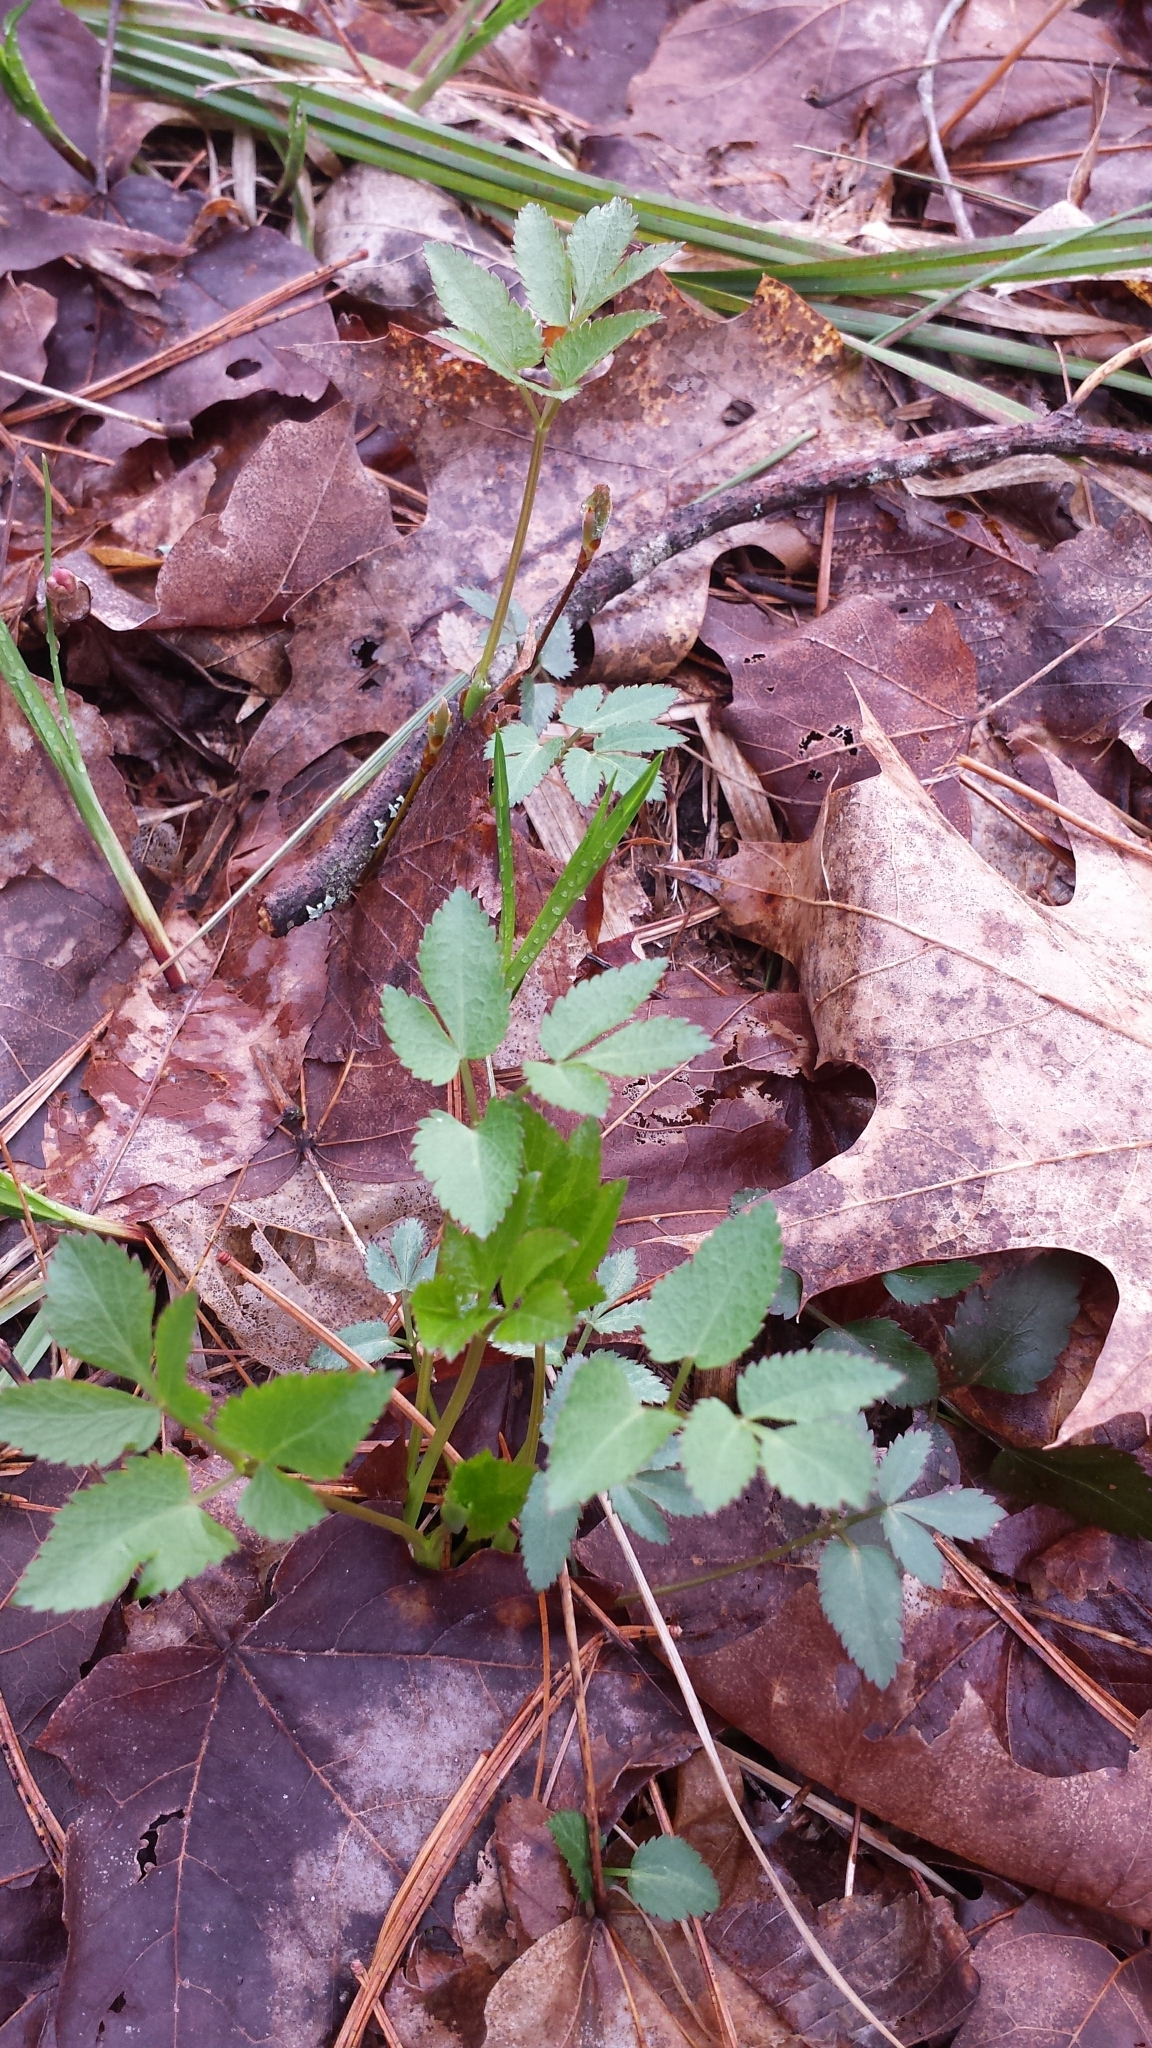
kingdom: Plantae
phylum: Tracheophyta
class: Magnoliopsida
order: Apiales
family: Apiaceae
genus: Zizia
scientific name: Zizia aurea
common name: Golden alexanders
